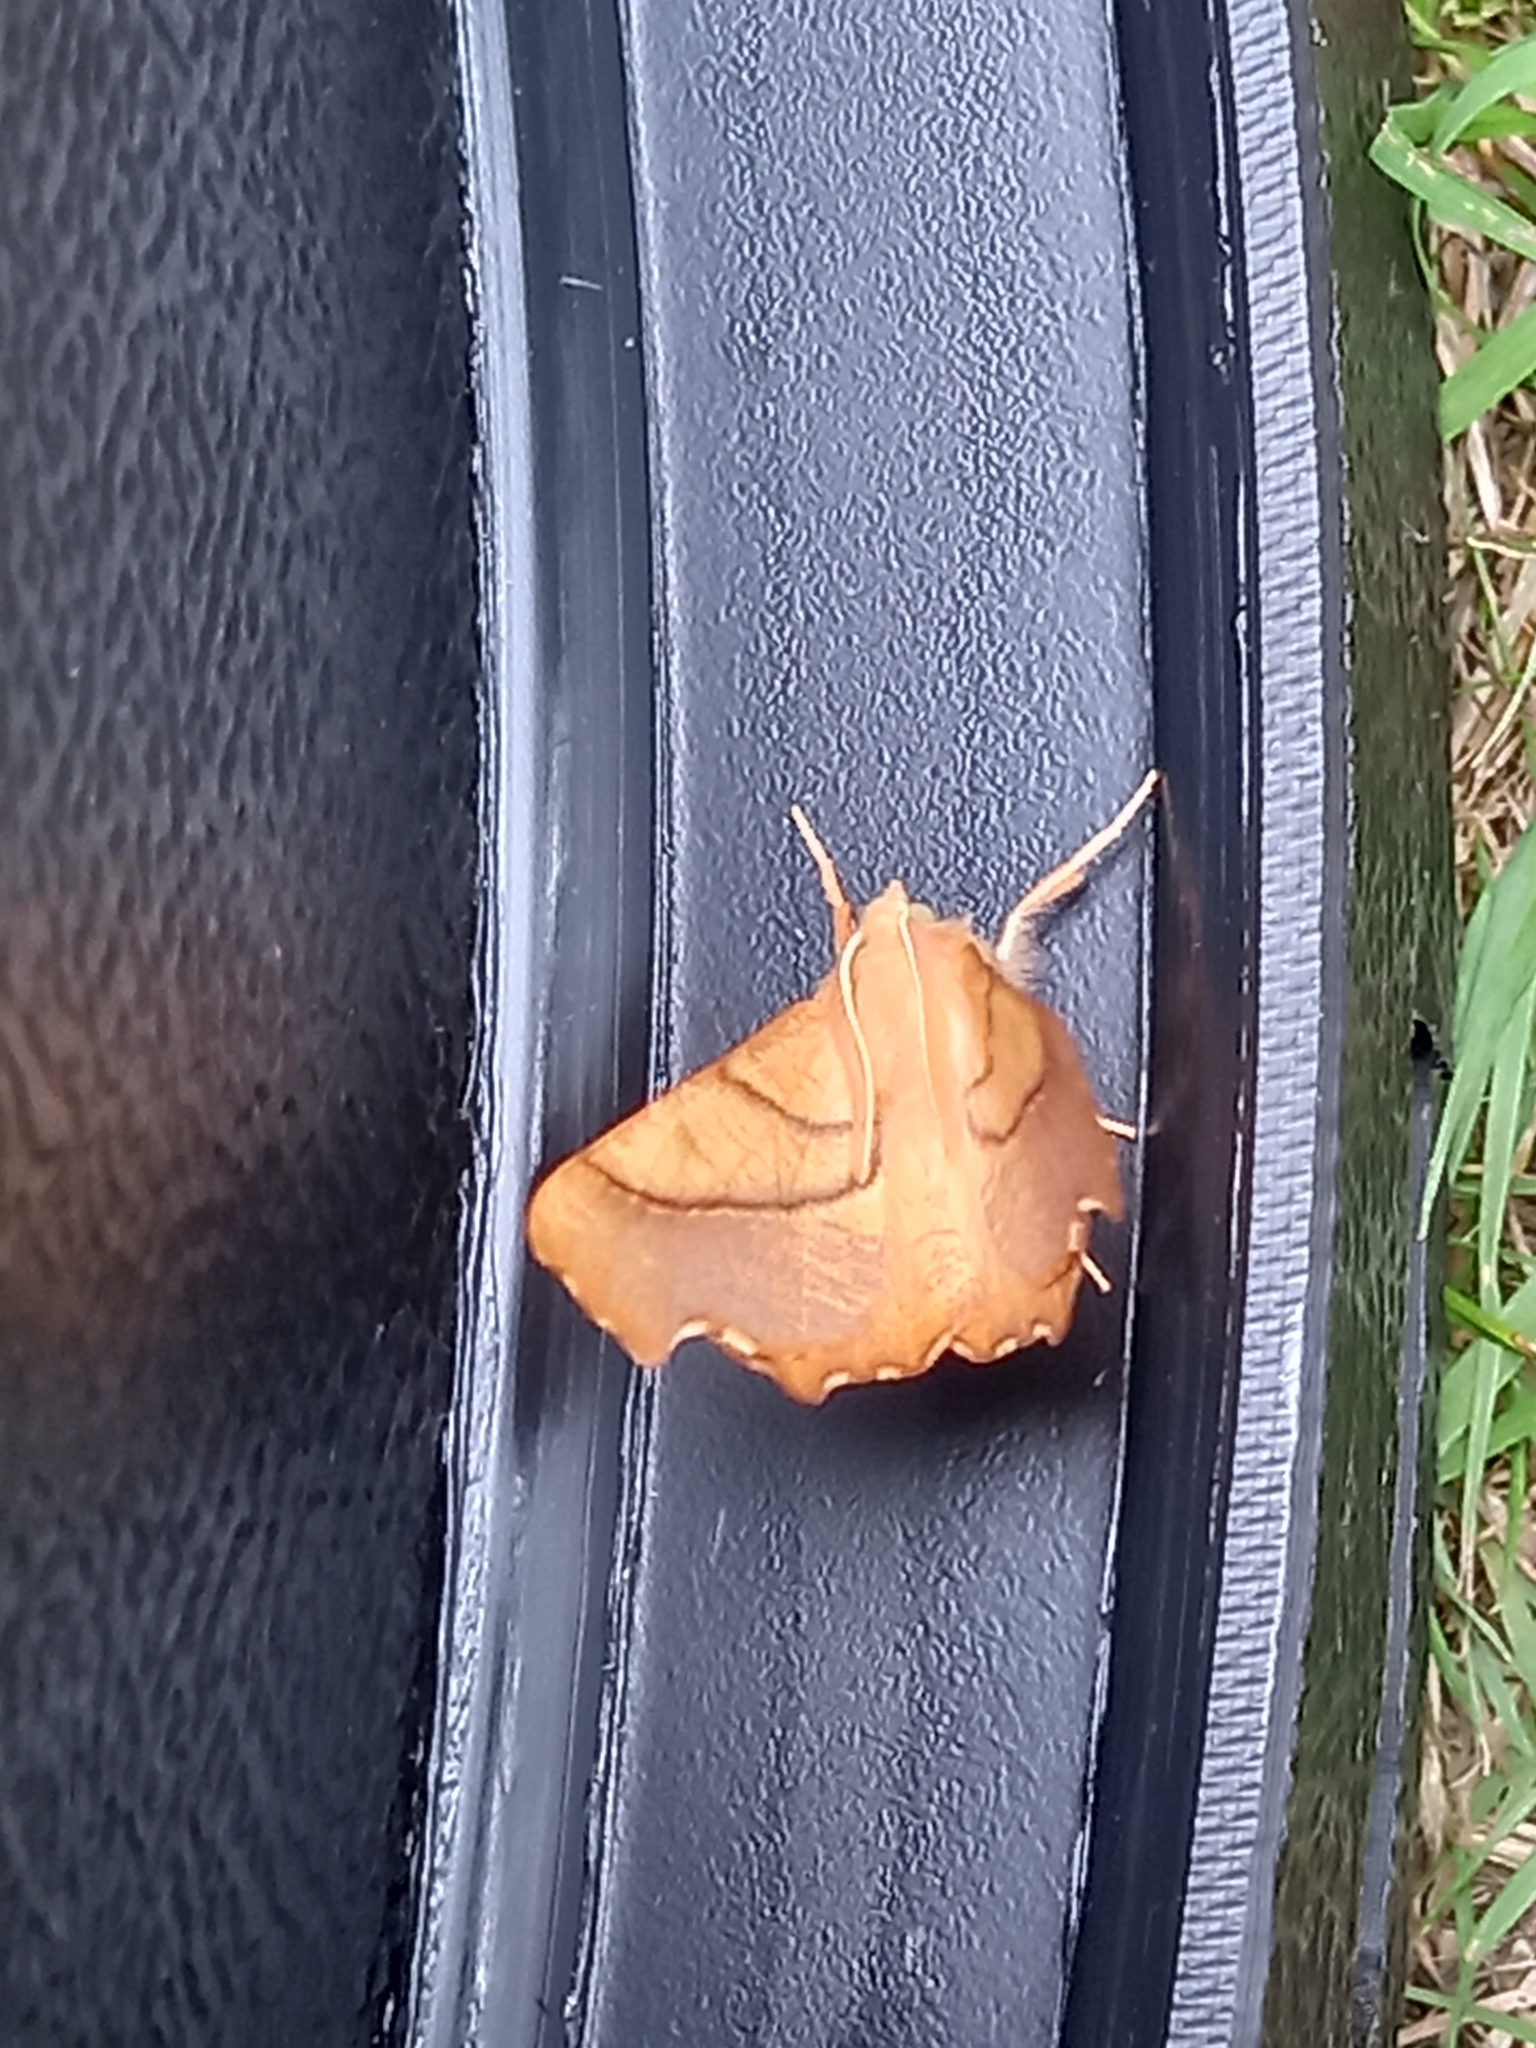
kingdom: Animalia
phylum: Arthropoda
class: Insecta
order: Lepidoptera
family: Geometridae
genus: Ennomos
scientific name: Ennomos fuscantaria
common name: Dusky thorn
